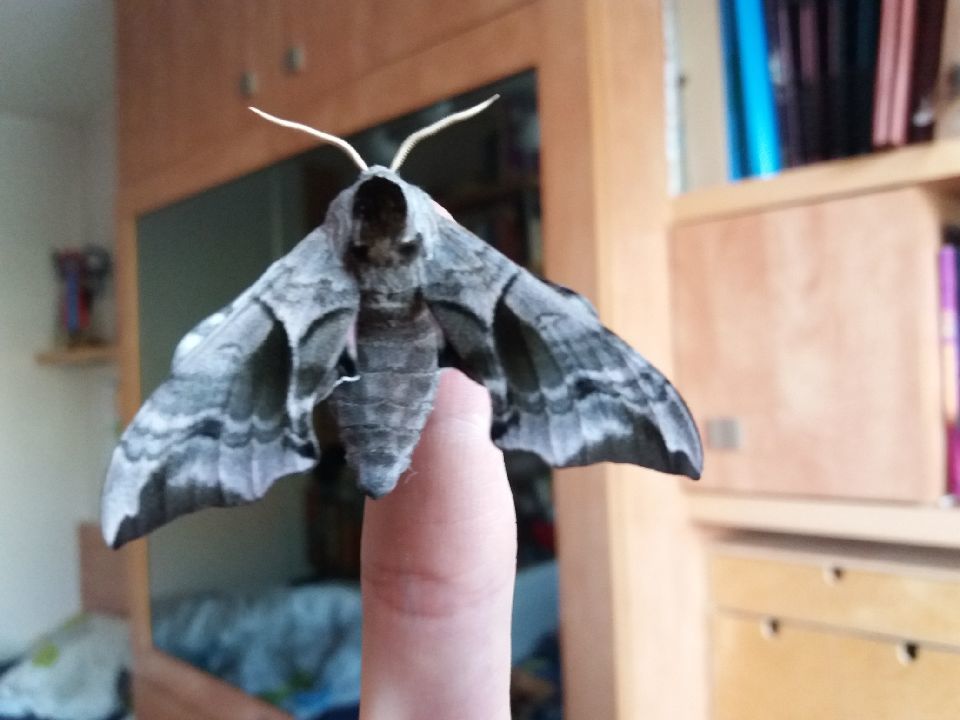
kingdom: Animalia
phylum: Arthropoda
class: Insecta
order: Lepidoptera
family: Sphingidae
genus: Smerinthus
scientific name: Smerinthus ocellata
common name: Eyed hawk-moth
